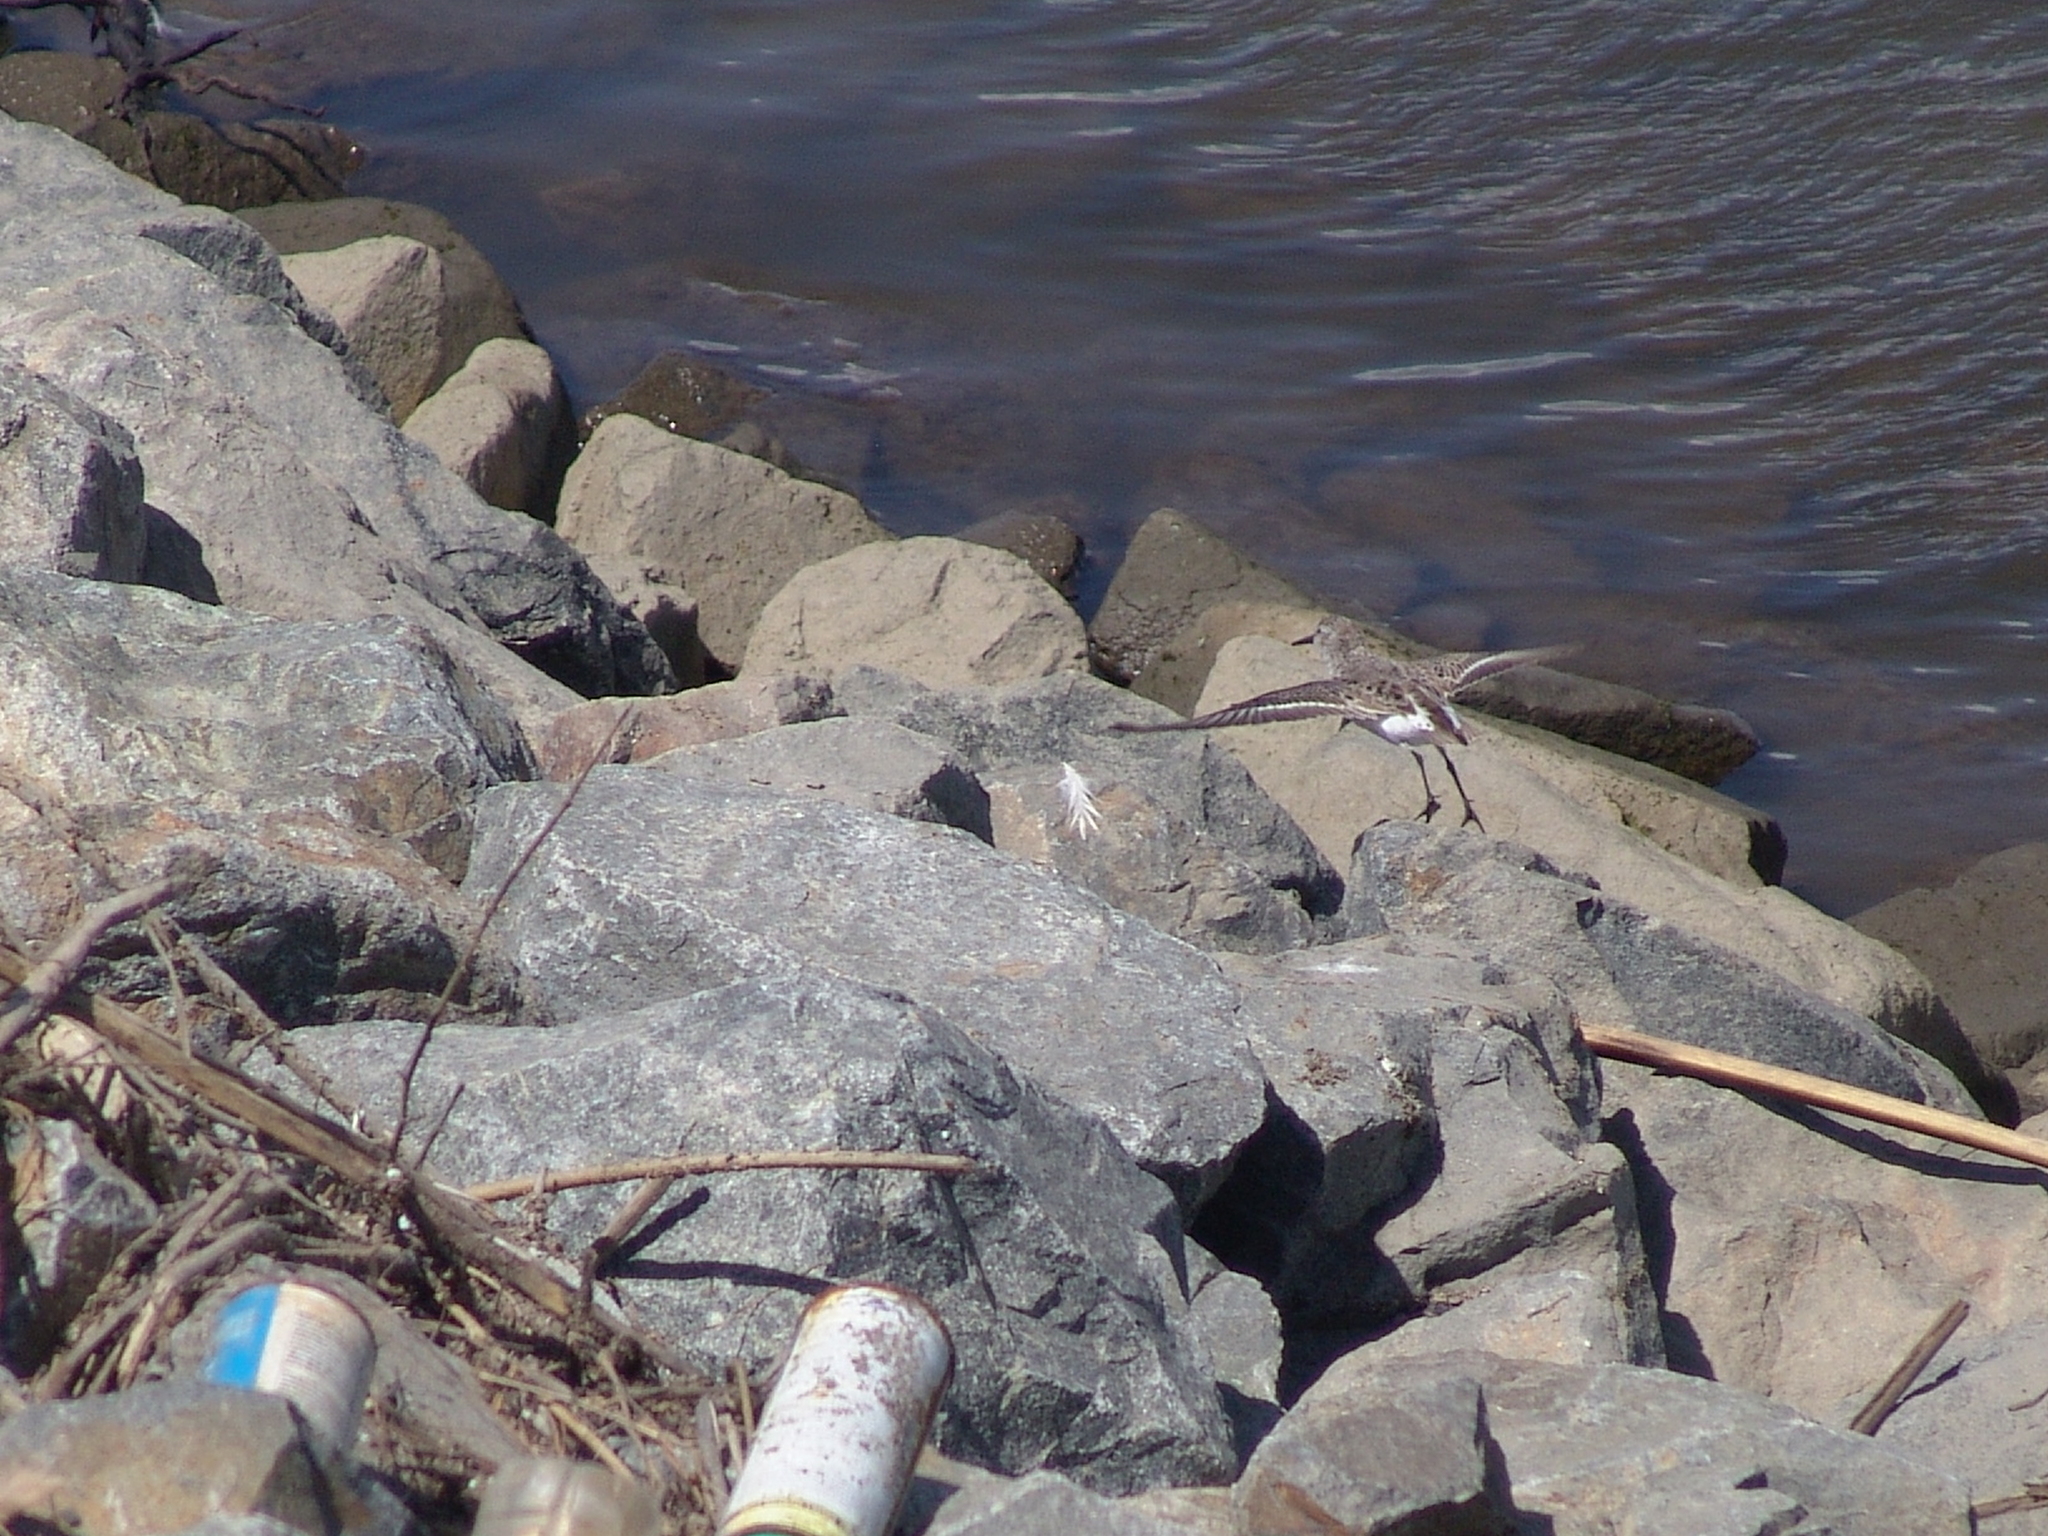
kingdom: Animalia
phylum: Chordata
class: Aves
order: Charadriiformes
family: Scolopacidae
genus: Calidris
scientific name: Calidris mauri
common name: Western sandpiper
